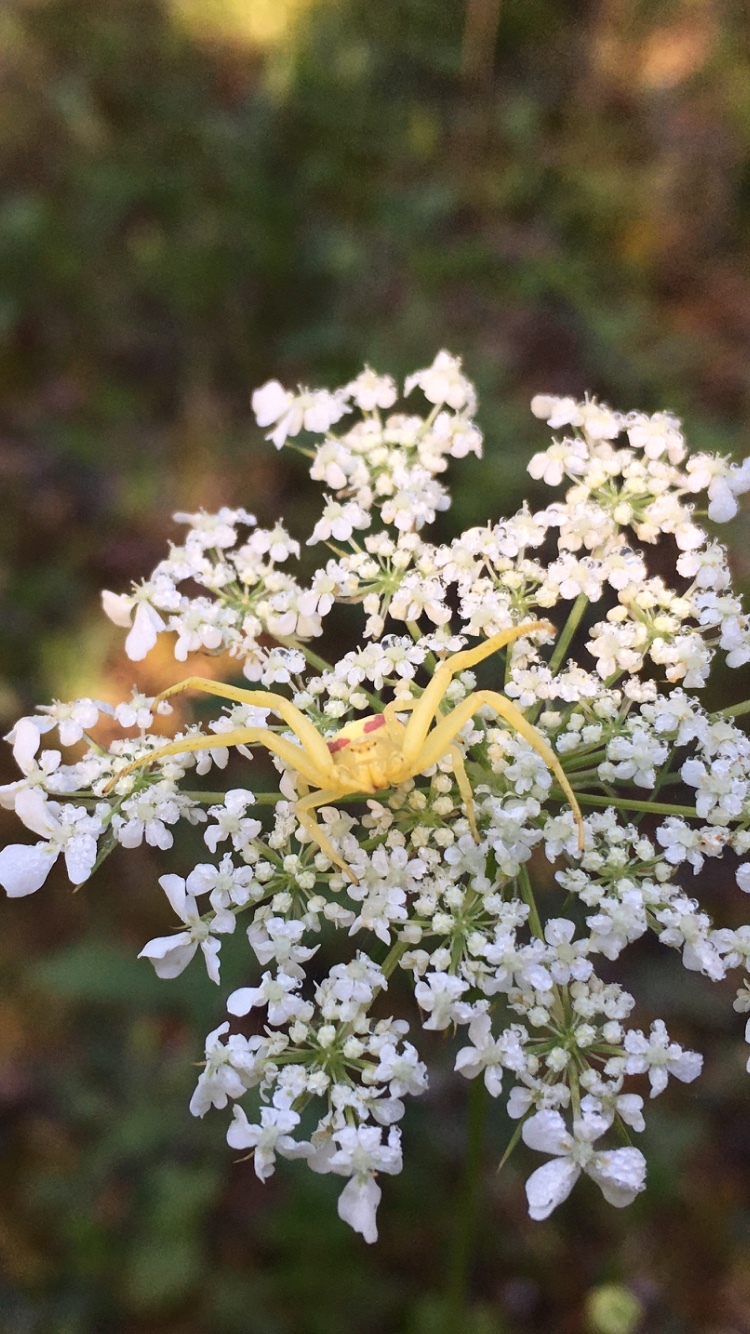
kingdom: Animalia
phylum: Arthropoda
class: Arachnida
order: Araneae
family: Thomisidae
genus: Misumena
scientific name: Misumena vatia
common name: Goldenrod crab spider
